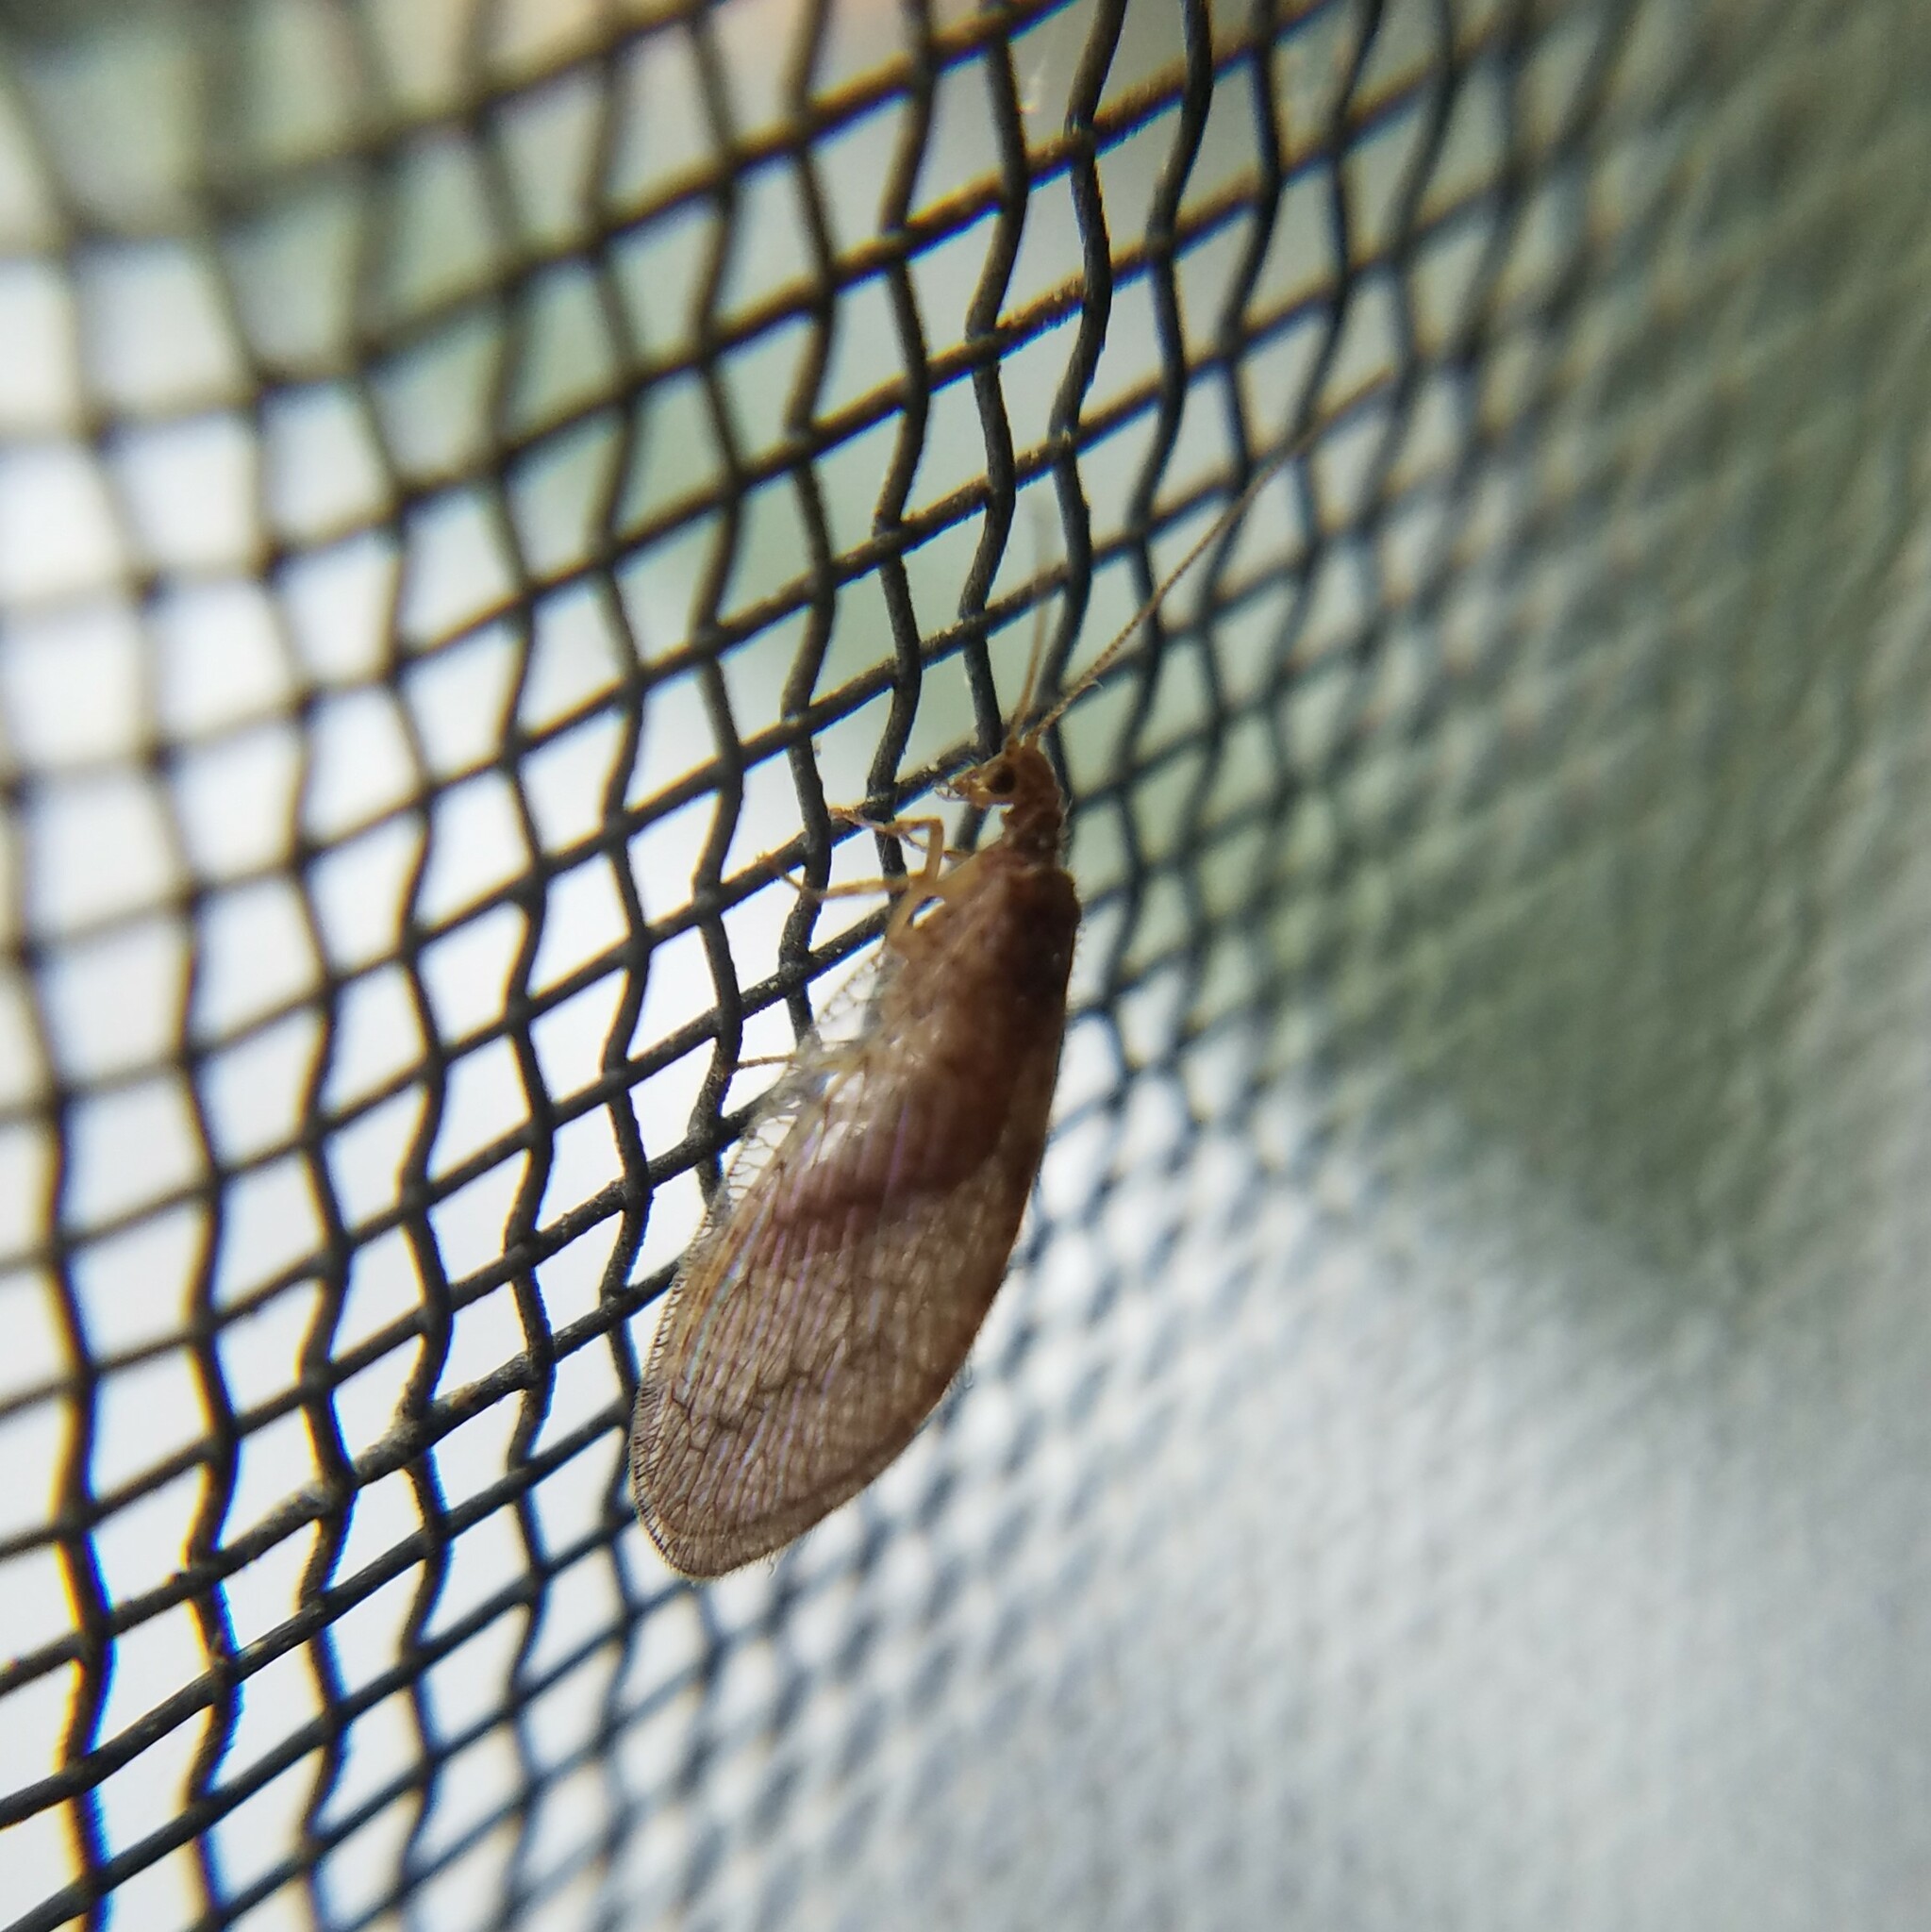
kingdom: Animalia
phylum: Arthropoda
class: Insecta
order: Neuroptera
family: Hemerobiidae
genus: Micromus
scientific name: Micromus posticus
